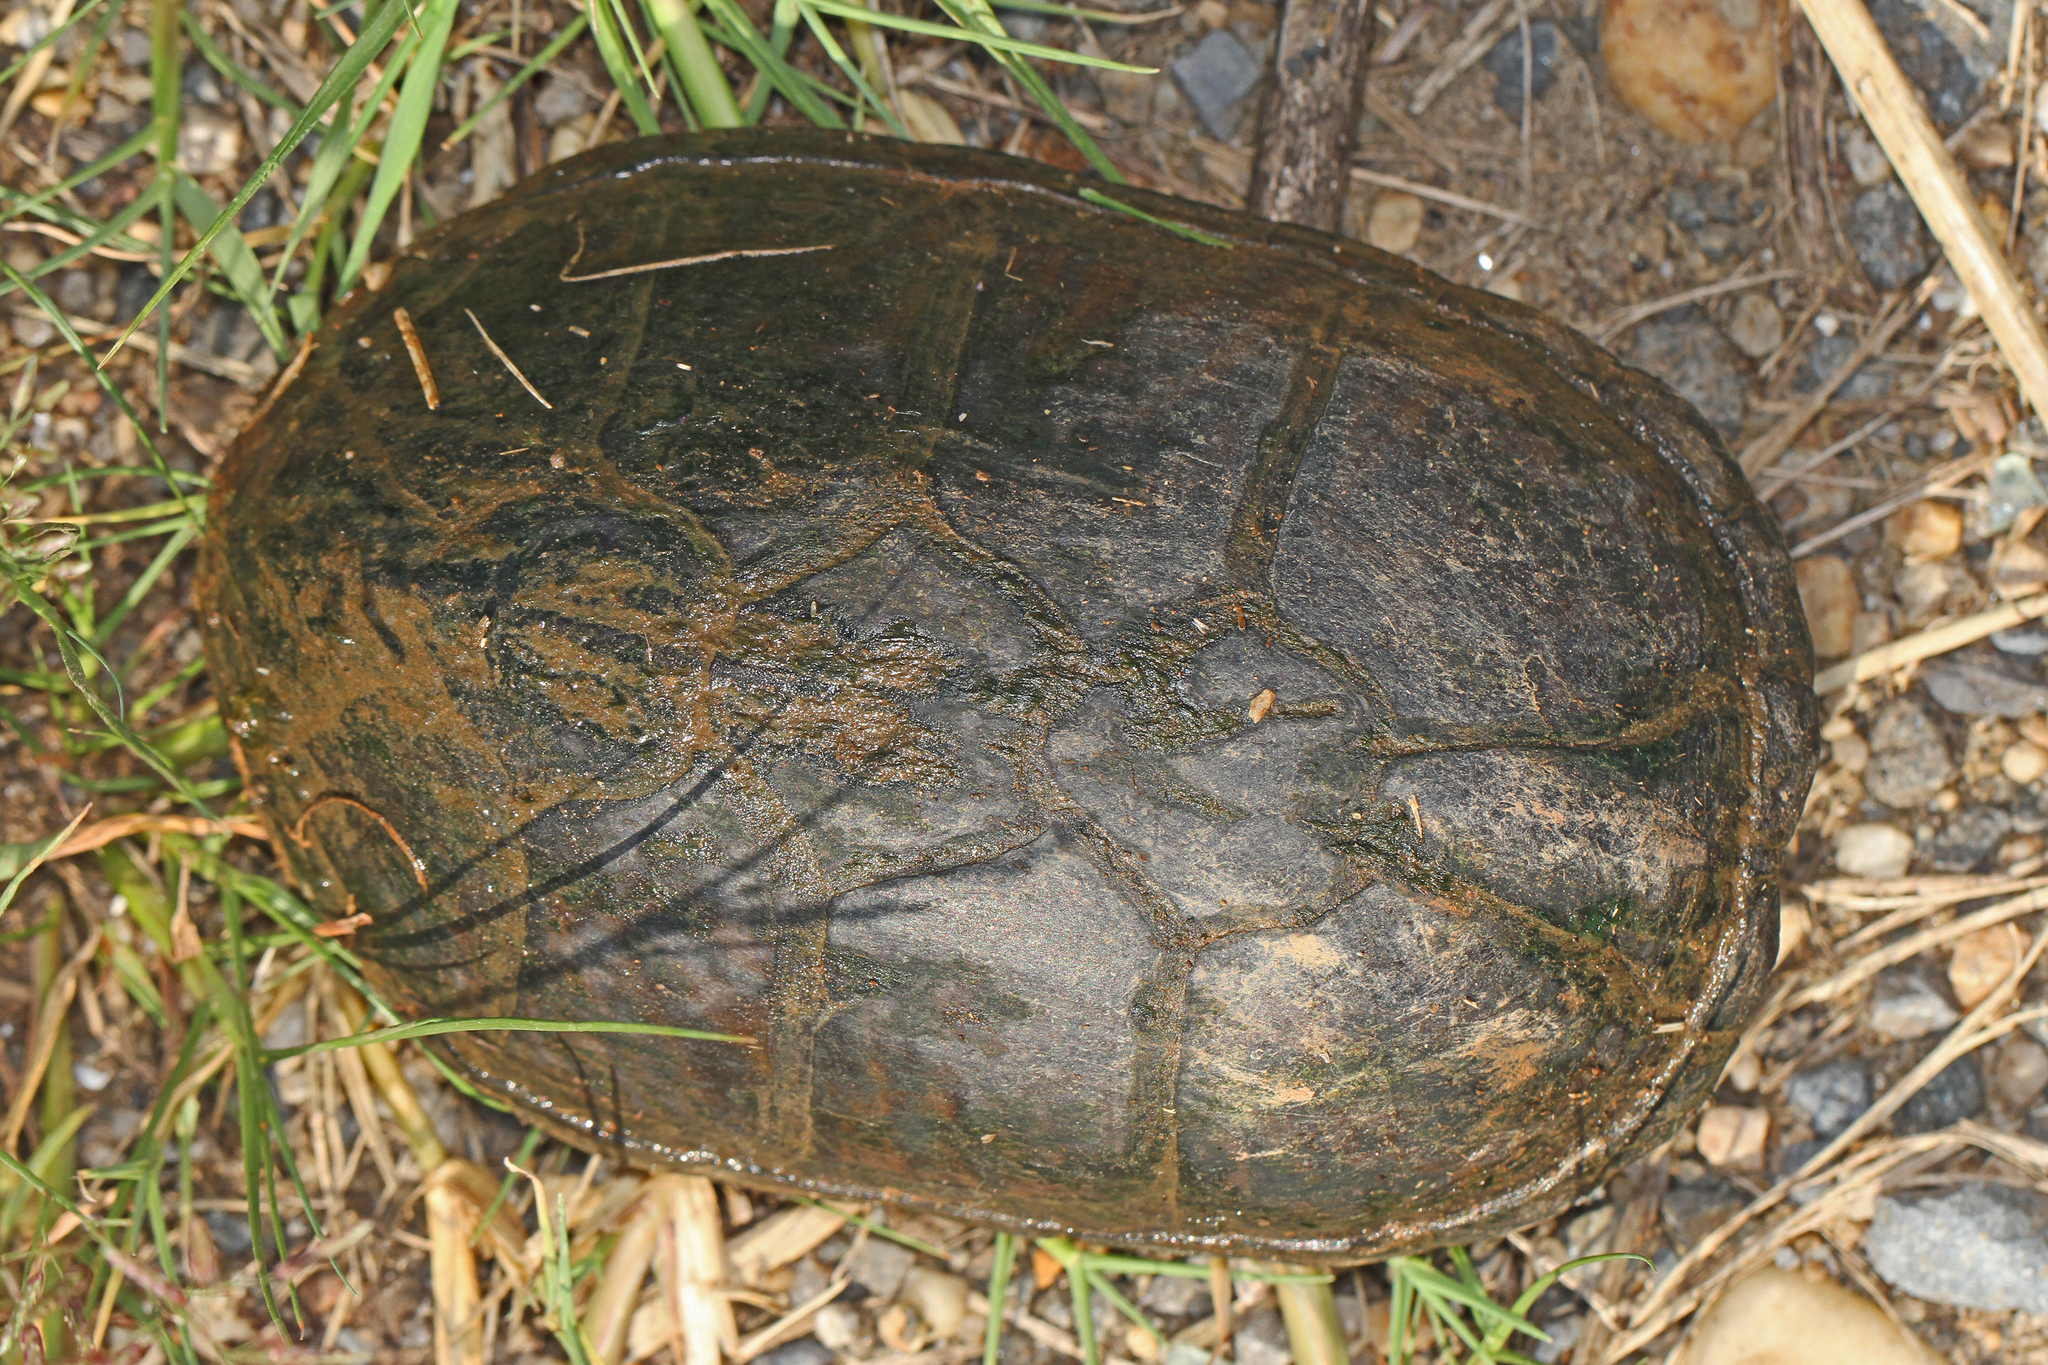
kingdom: Animalia
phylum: Chordata
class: Testudines
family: Kinosternidae
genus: Sternotherus
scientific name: Sternotherus odoratus
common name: Common musk turtle
